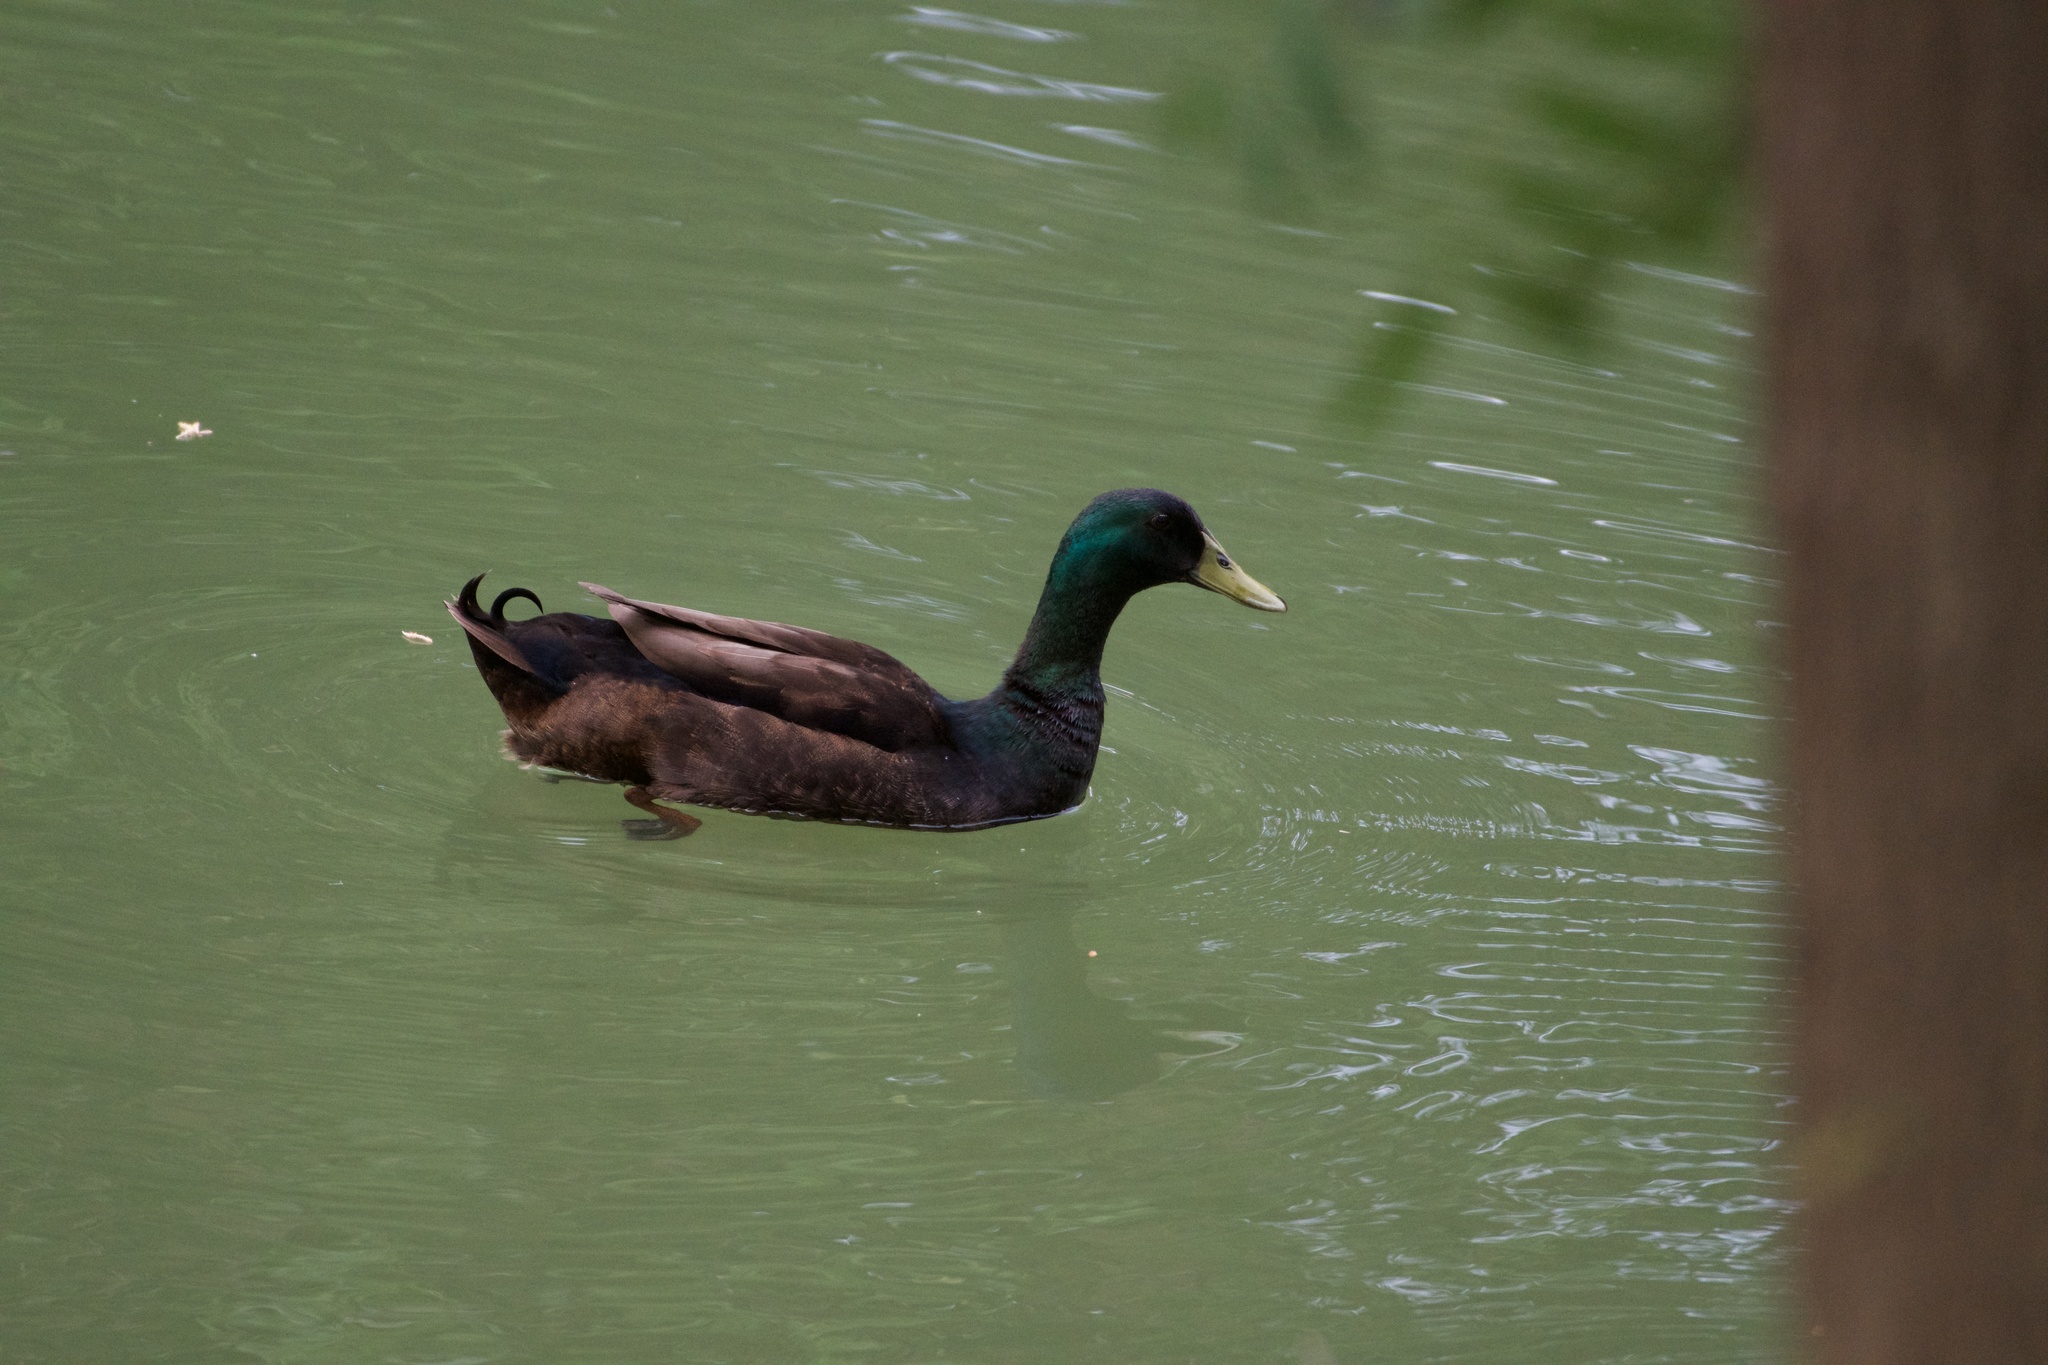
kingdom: Animalia
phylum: Chordata
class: Aves
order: Anseriformes
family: Anatidae
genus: Anas
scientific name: Anas platyrhynchos
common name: Mallard
